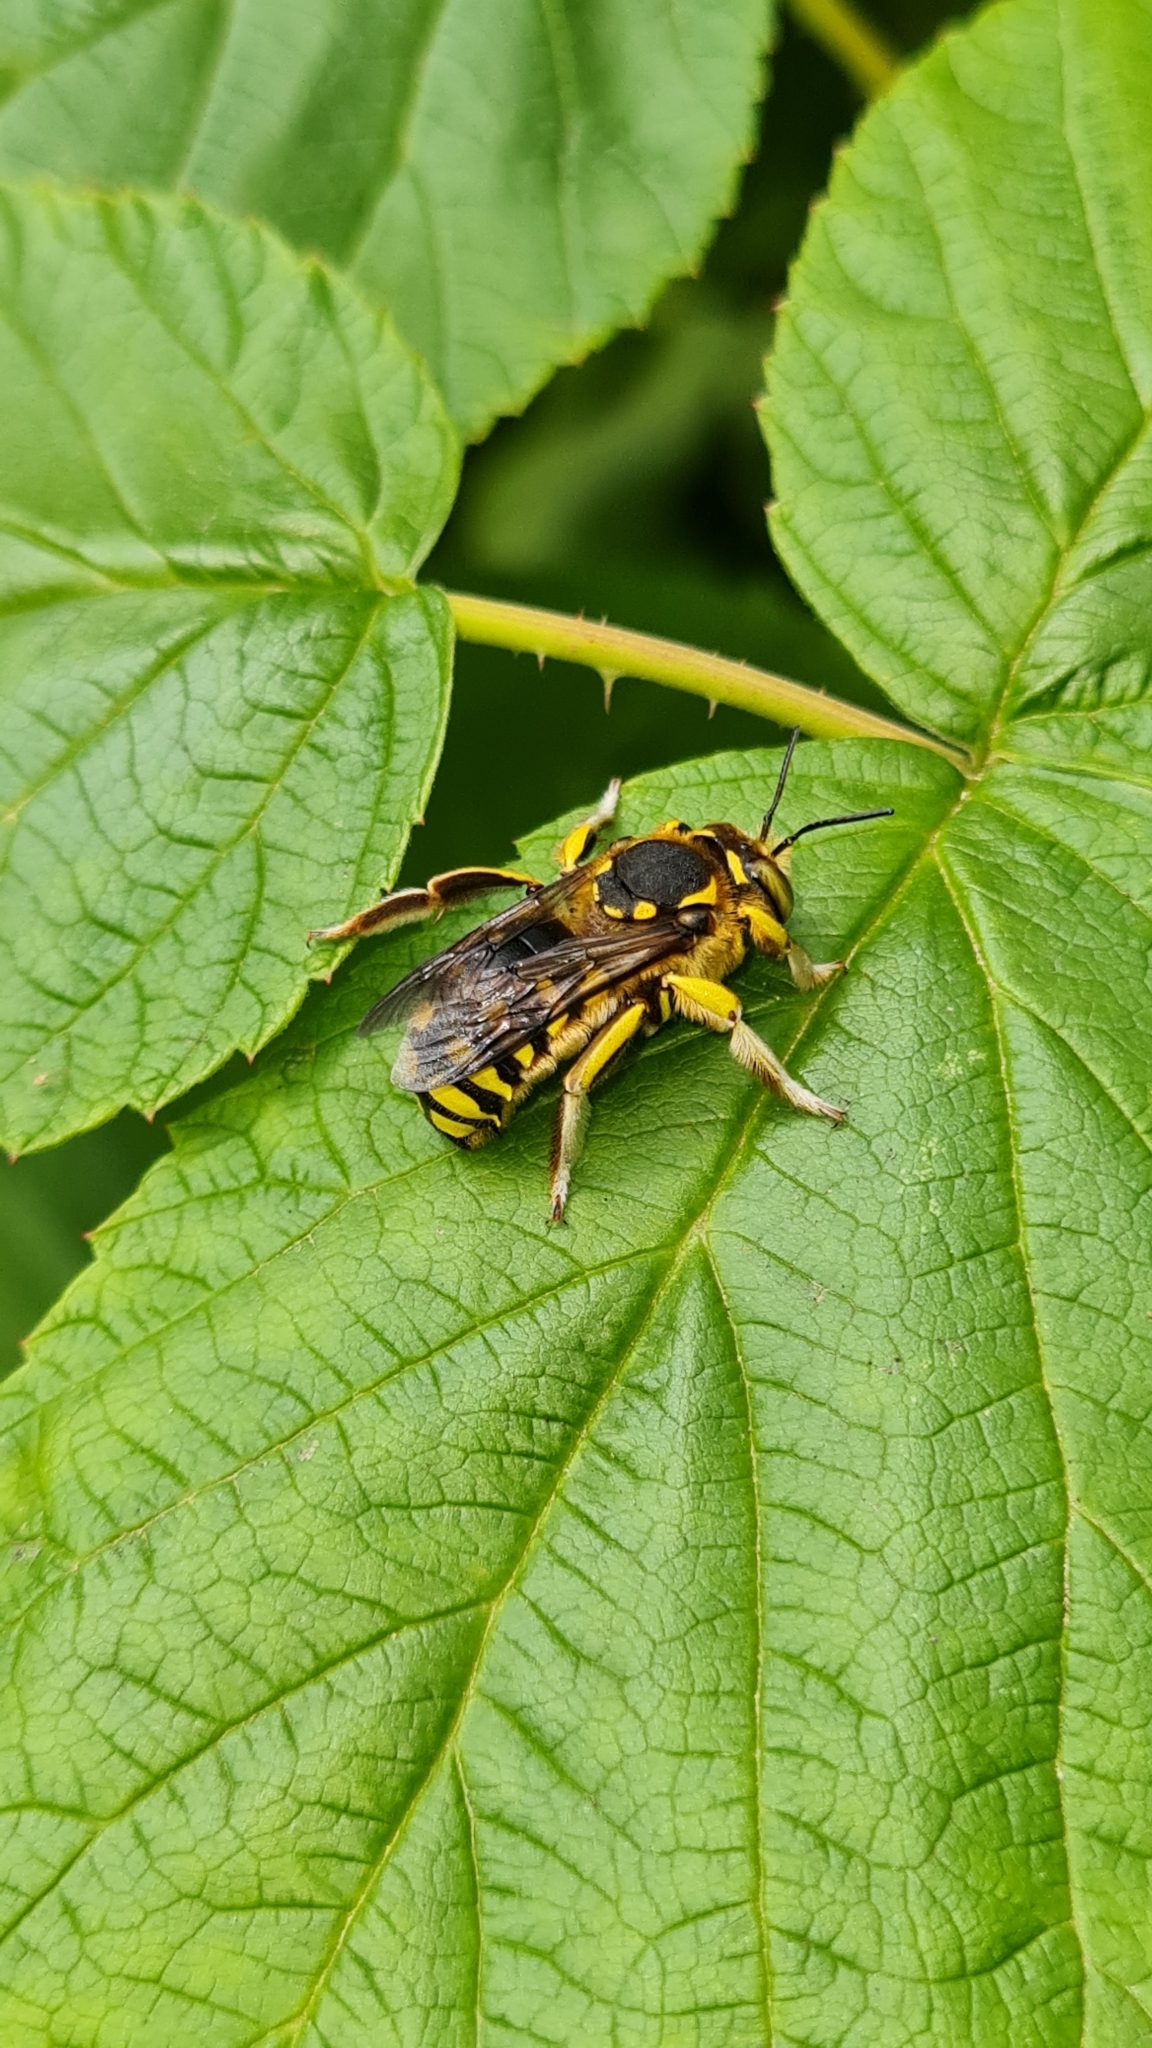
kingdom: Animalia
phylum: Arthropoda
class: Insecta
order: Hymenoptera
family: Megachilidae
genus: Anthidium
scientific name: Anthidium florentinum
